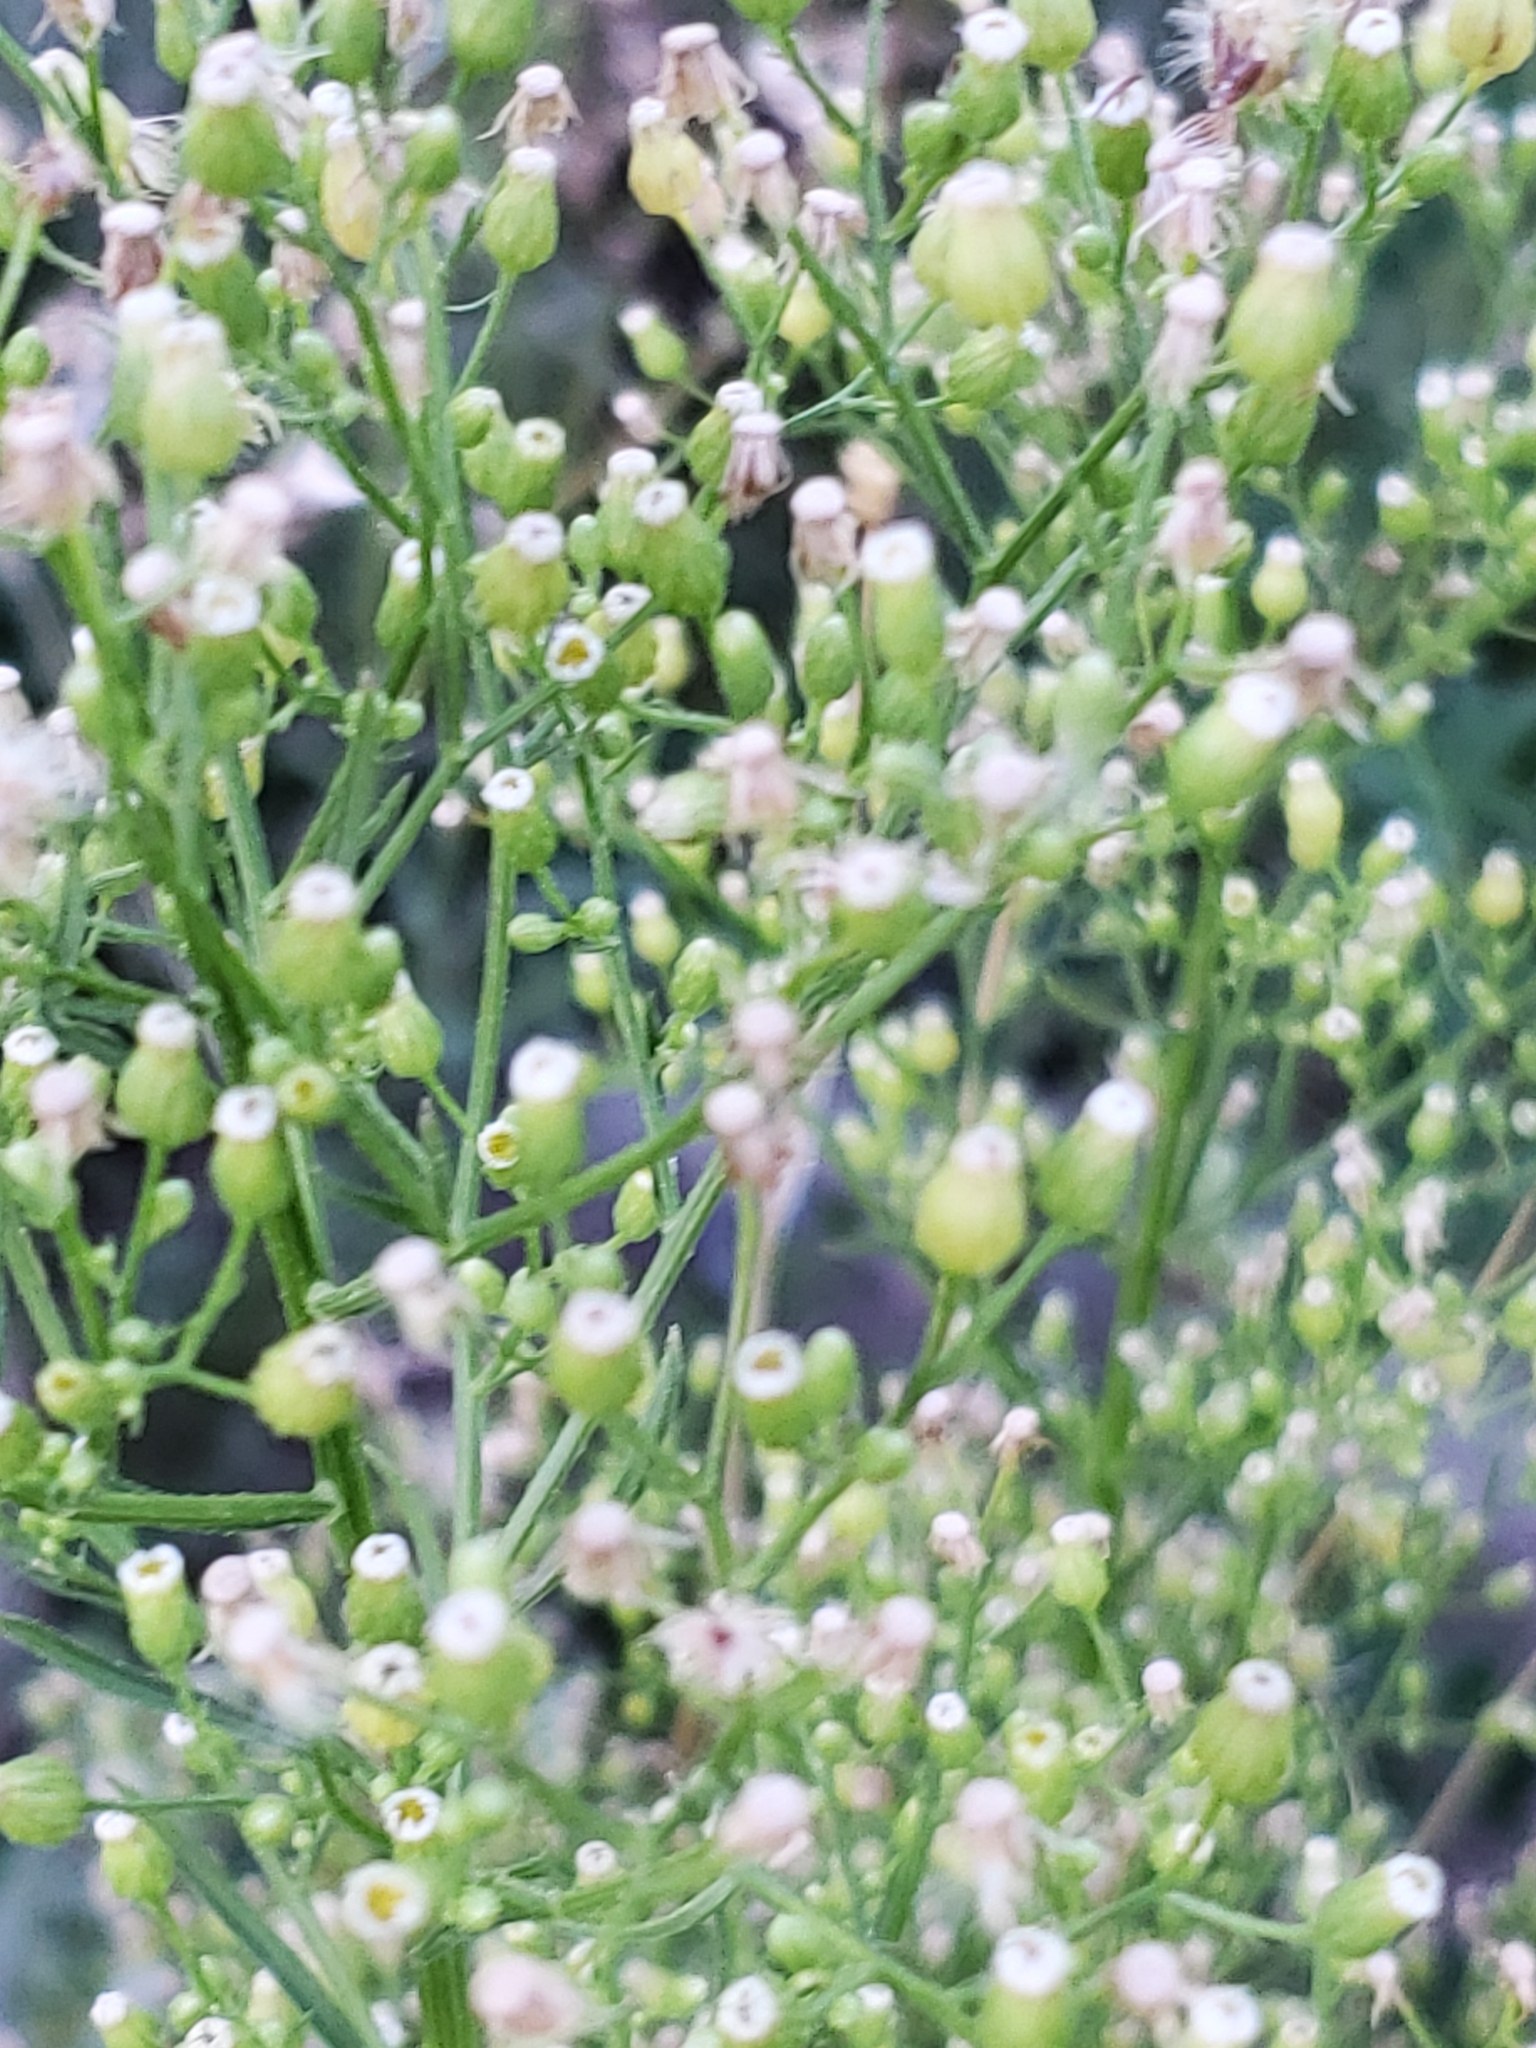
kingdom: Plantae
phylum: Tracheophyta
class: Magnoliopsida
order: Asterales
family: Asteraceae
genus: Erigeron
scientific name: Erigeron canadensis
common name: Canadian fleabane
